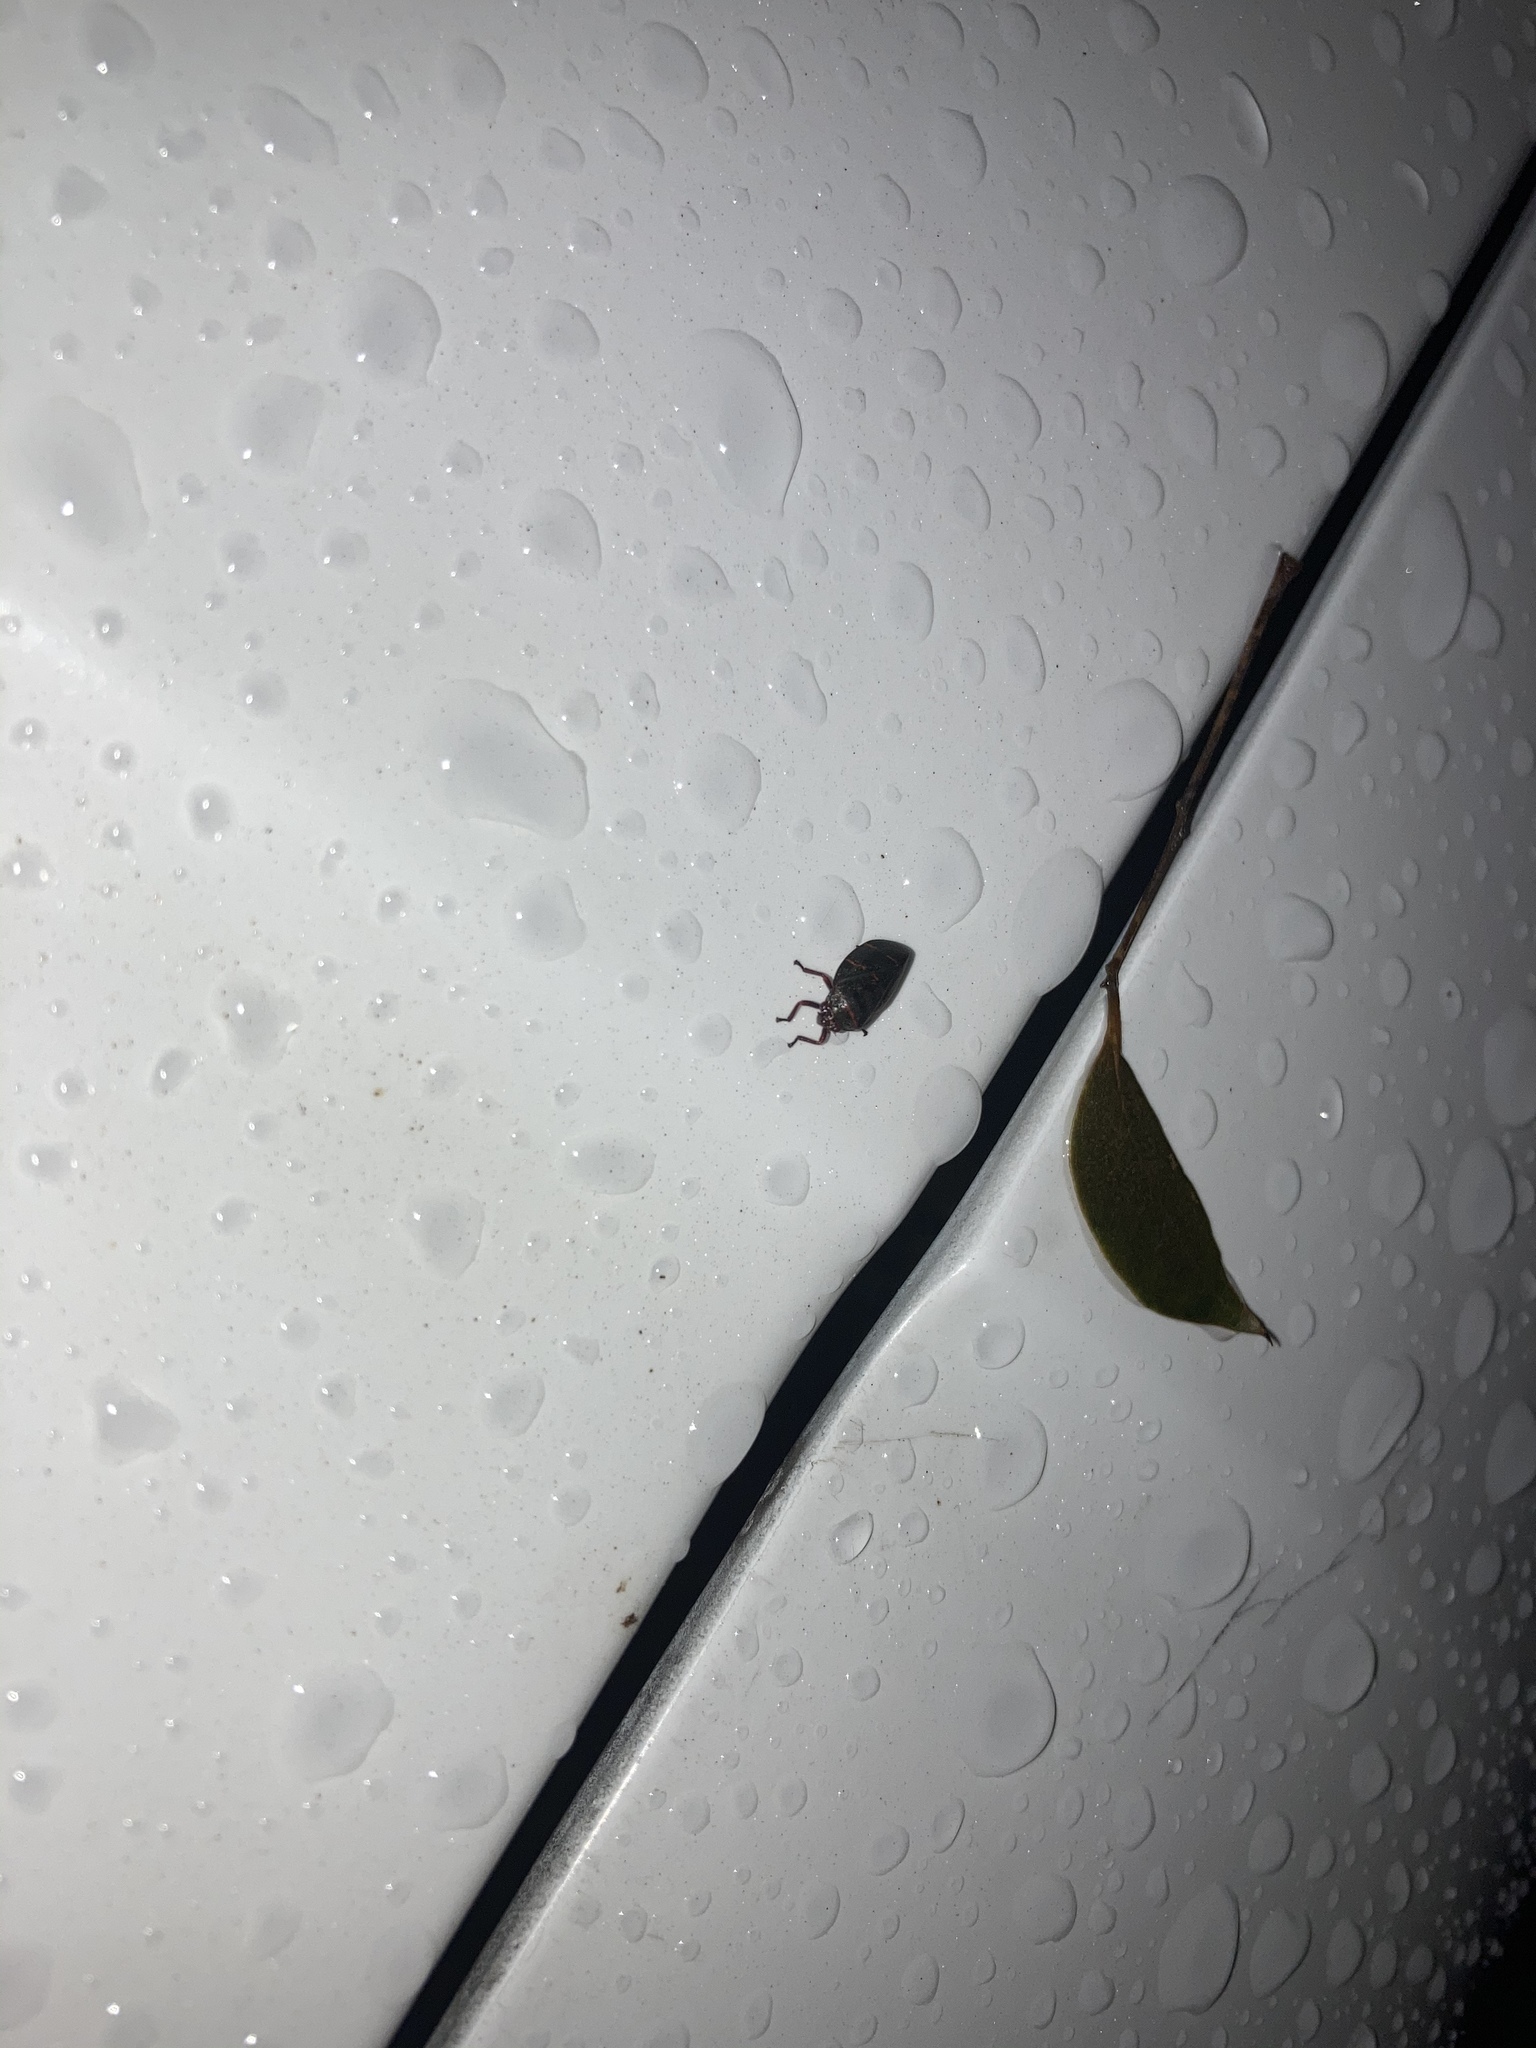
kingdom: Animalia
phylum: Arthropoda
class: Insecta
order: Hemiptera
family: Cercopidae
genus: Prosapia
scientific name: Prosapia bicincta
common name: Twolined spittlebug
